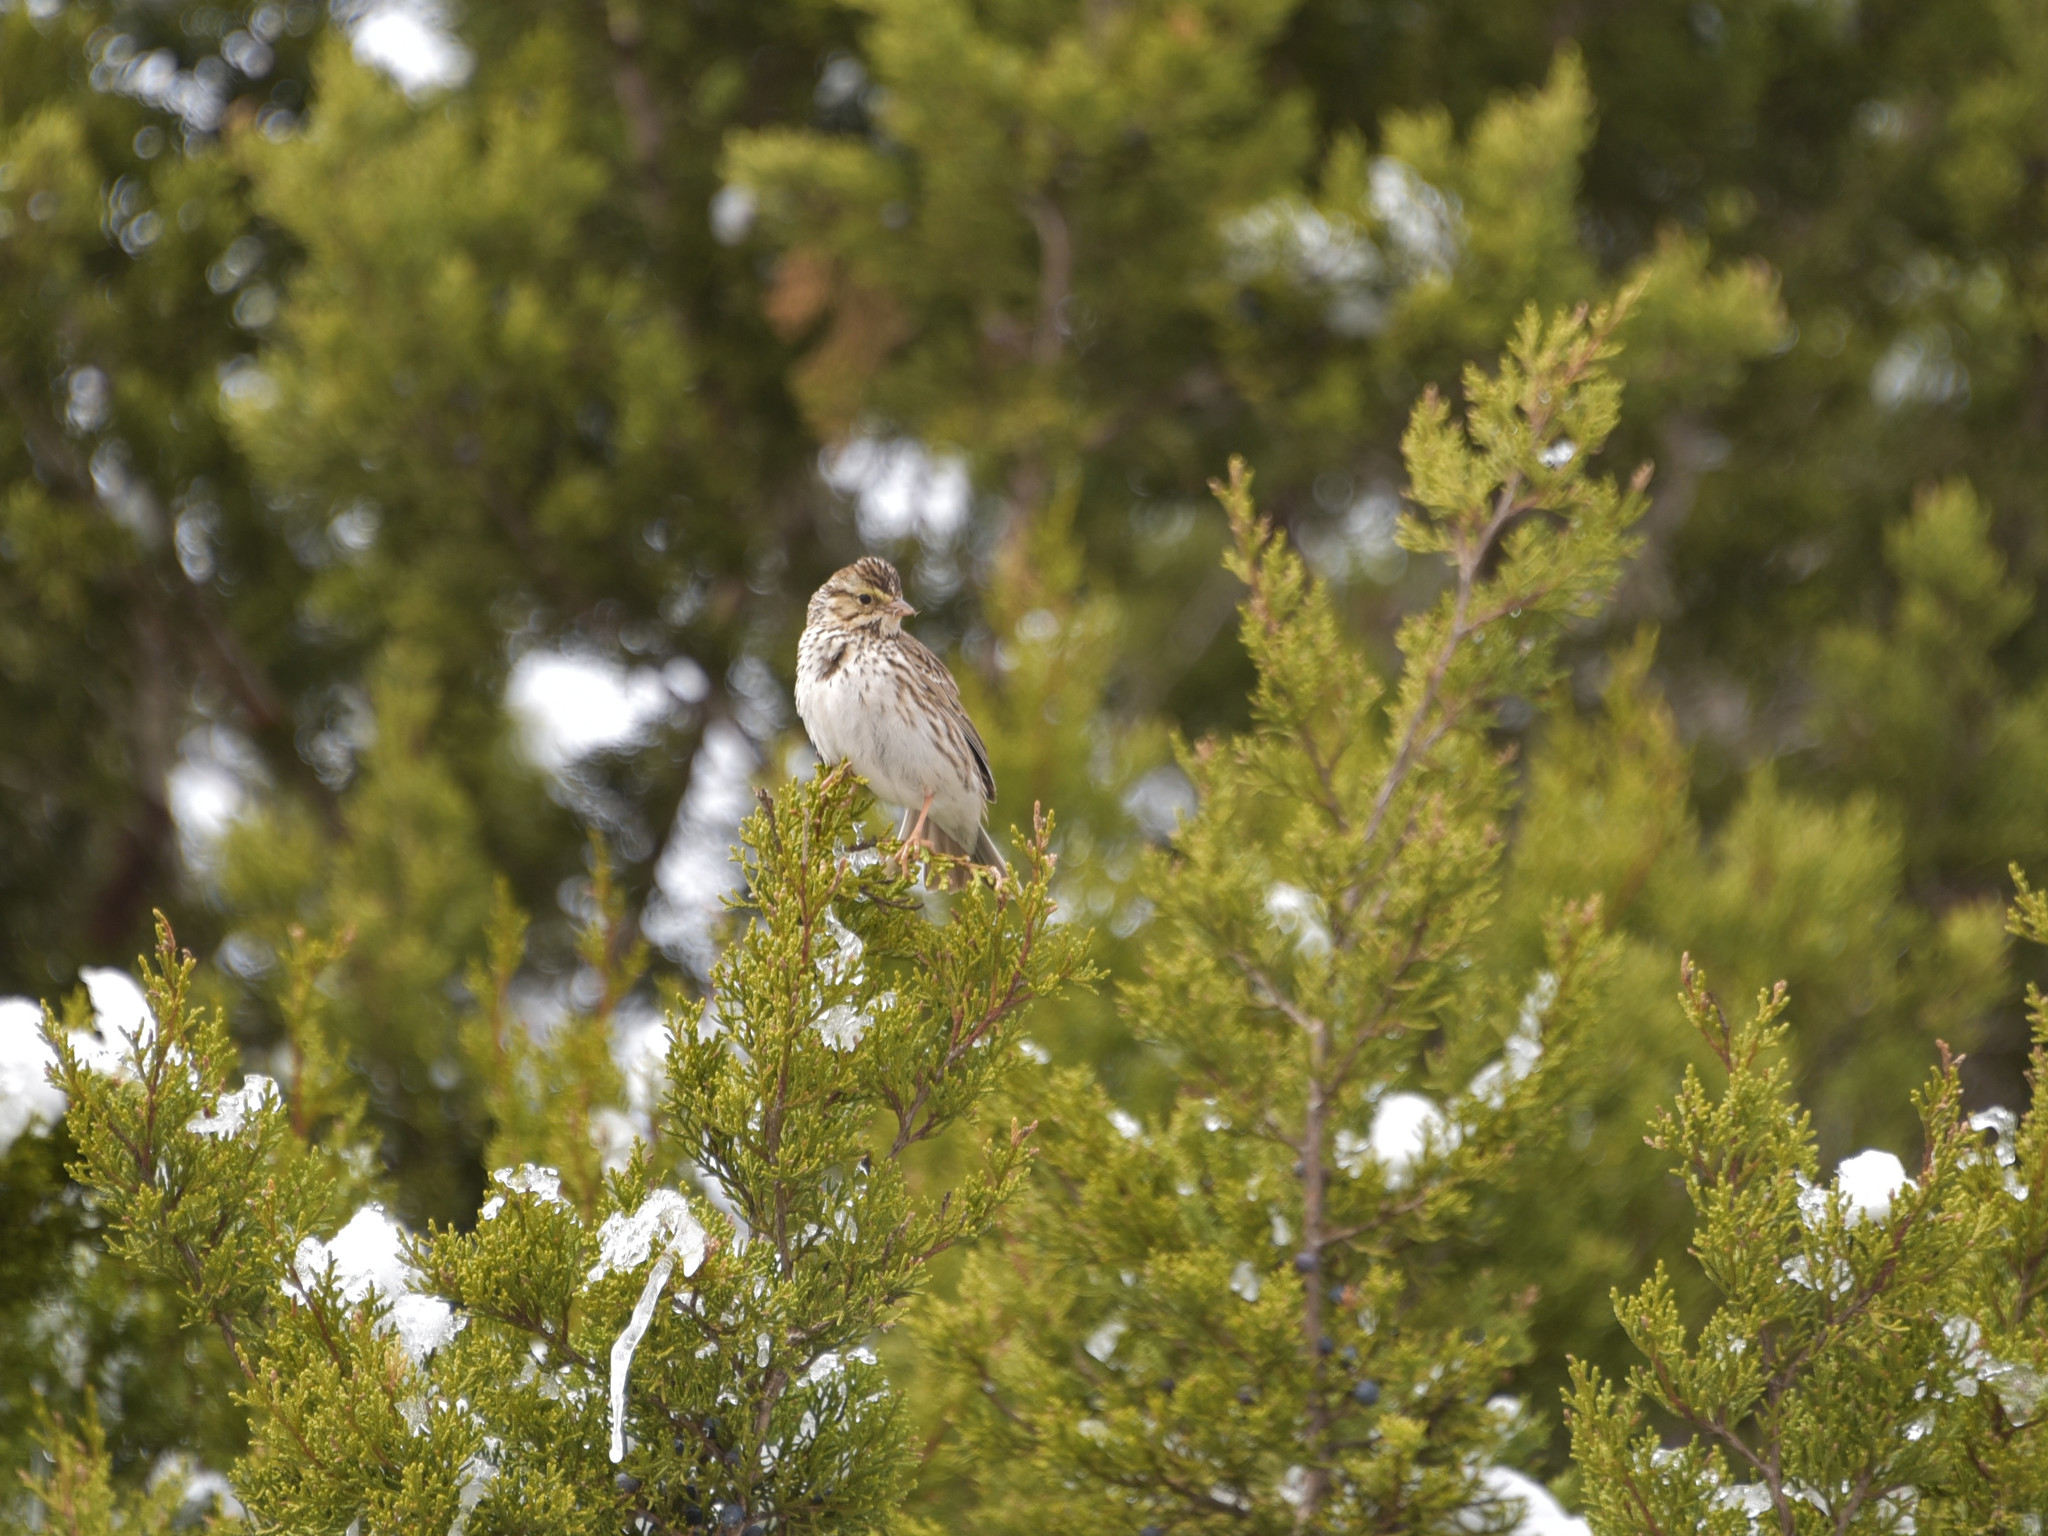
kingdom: Animalia
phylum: Chordata
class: Aves
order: Passeriformes
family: Passerellidae
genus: Passerculus
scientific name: Passerculus sandwichensis
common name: Savannah sparrow
